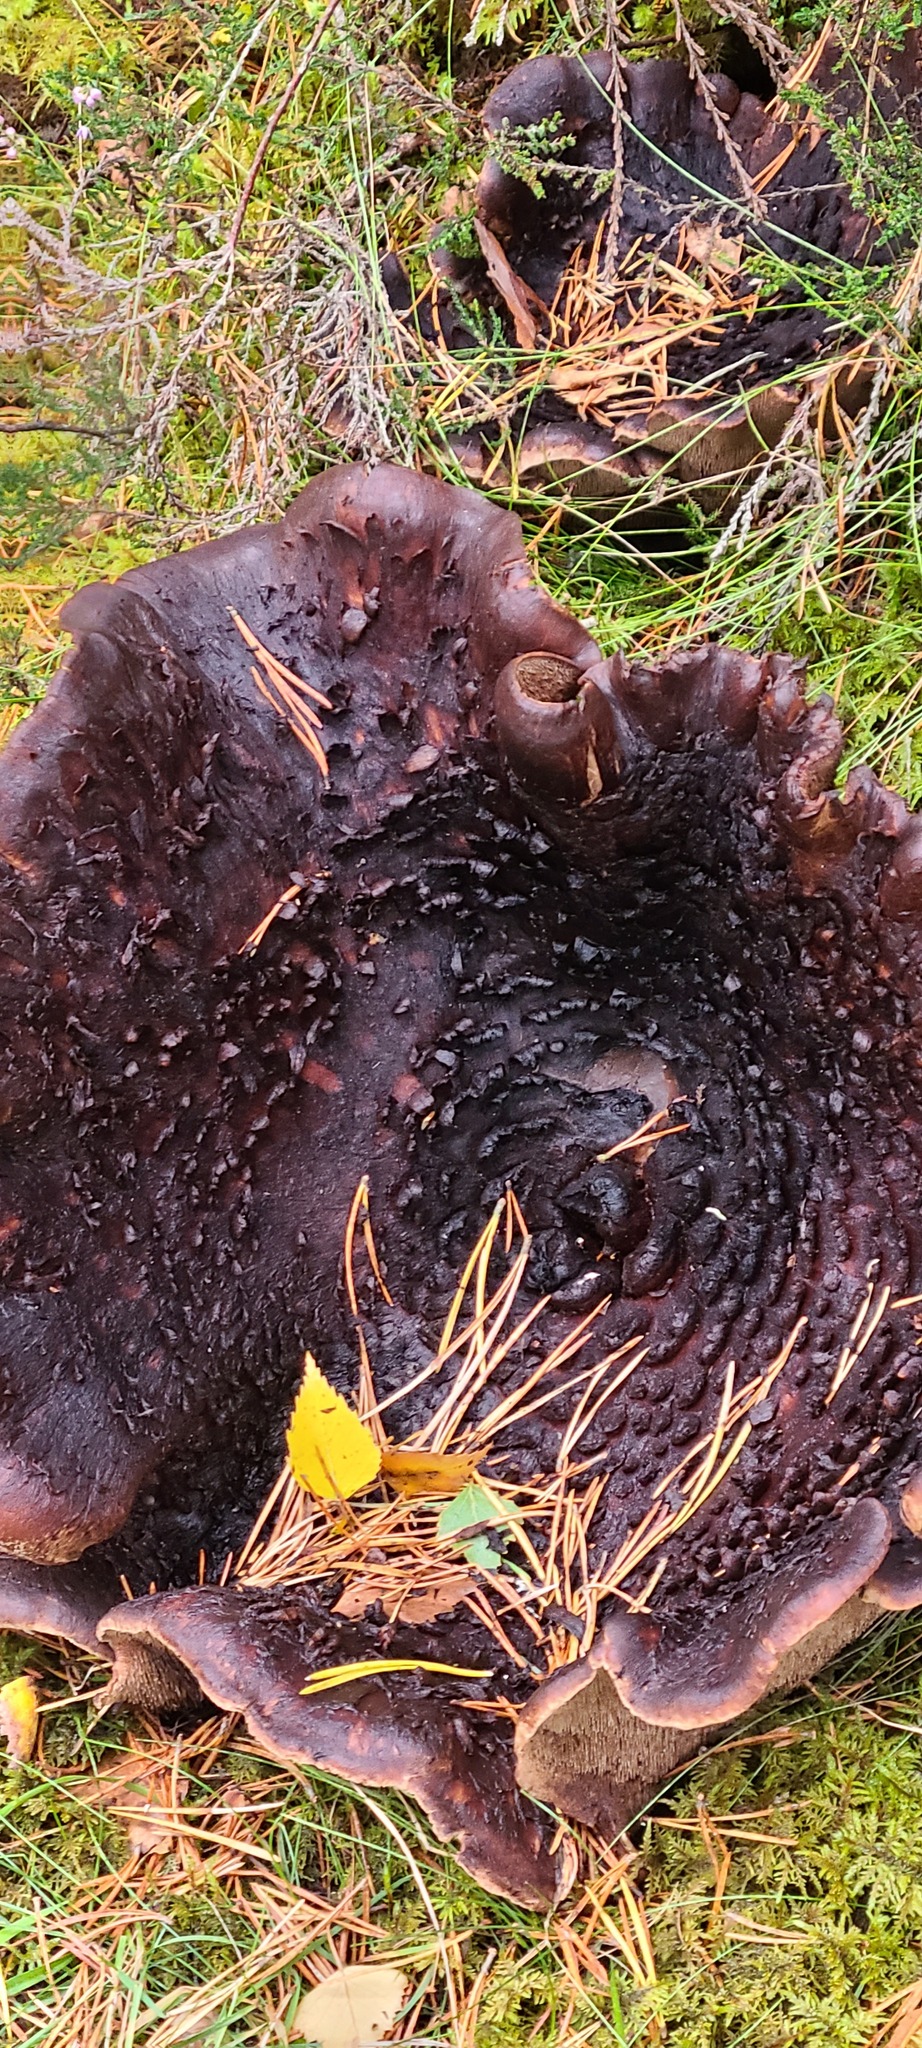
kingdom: Fungi
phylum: Basidiomycota
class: Agaricomycetes
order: Thelephorales
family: Bankeraceae
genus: Sarcodon
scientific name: Sarcodon squamosus
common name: Scaly tooth
